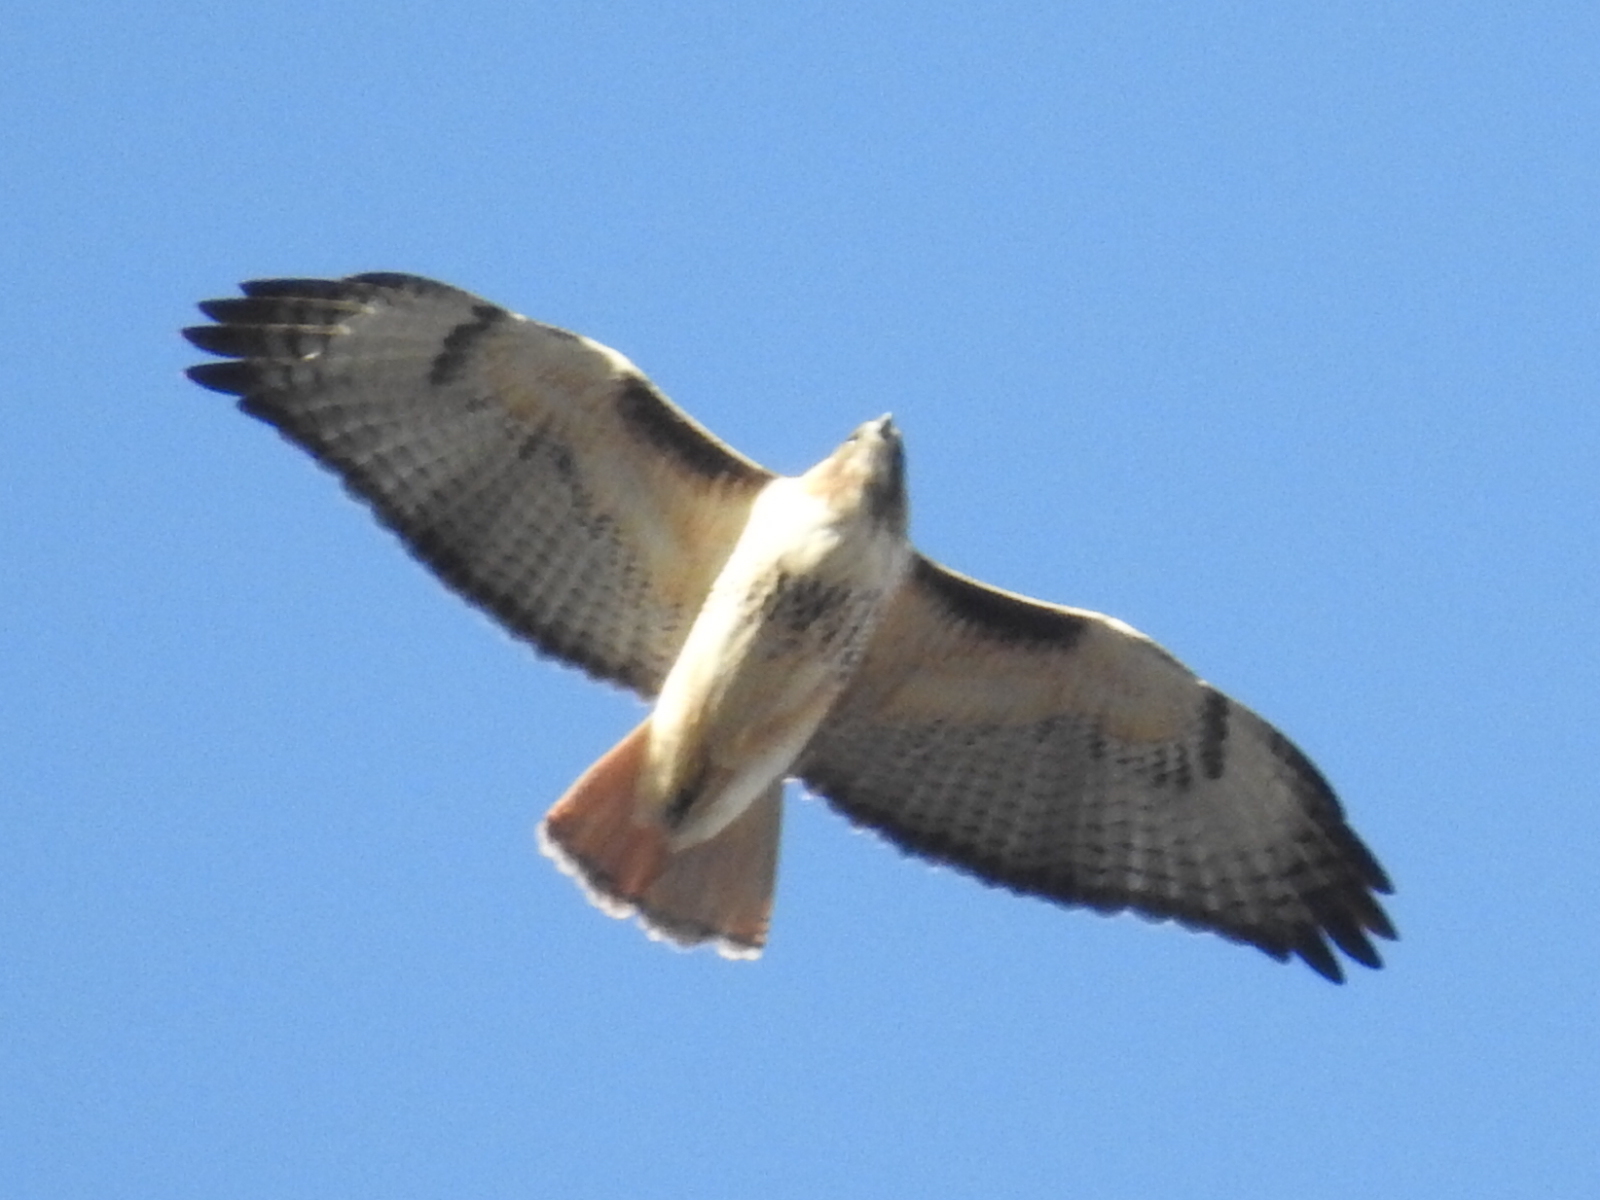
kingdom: Animalia
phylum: Chordata
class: Aves
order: Accipitriformes
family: Accipitridae
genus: Buteo
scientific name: Buteo jamaicensis
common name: Red-tailed hawk
